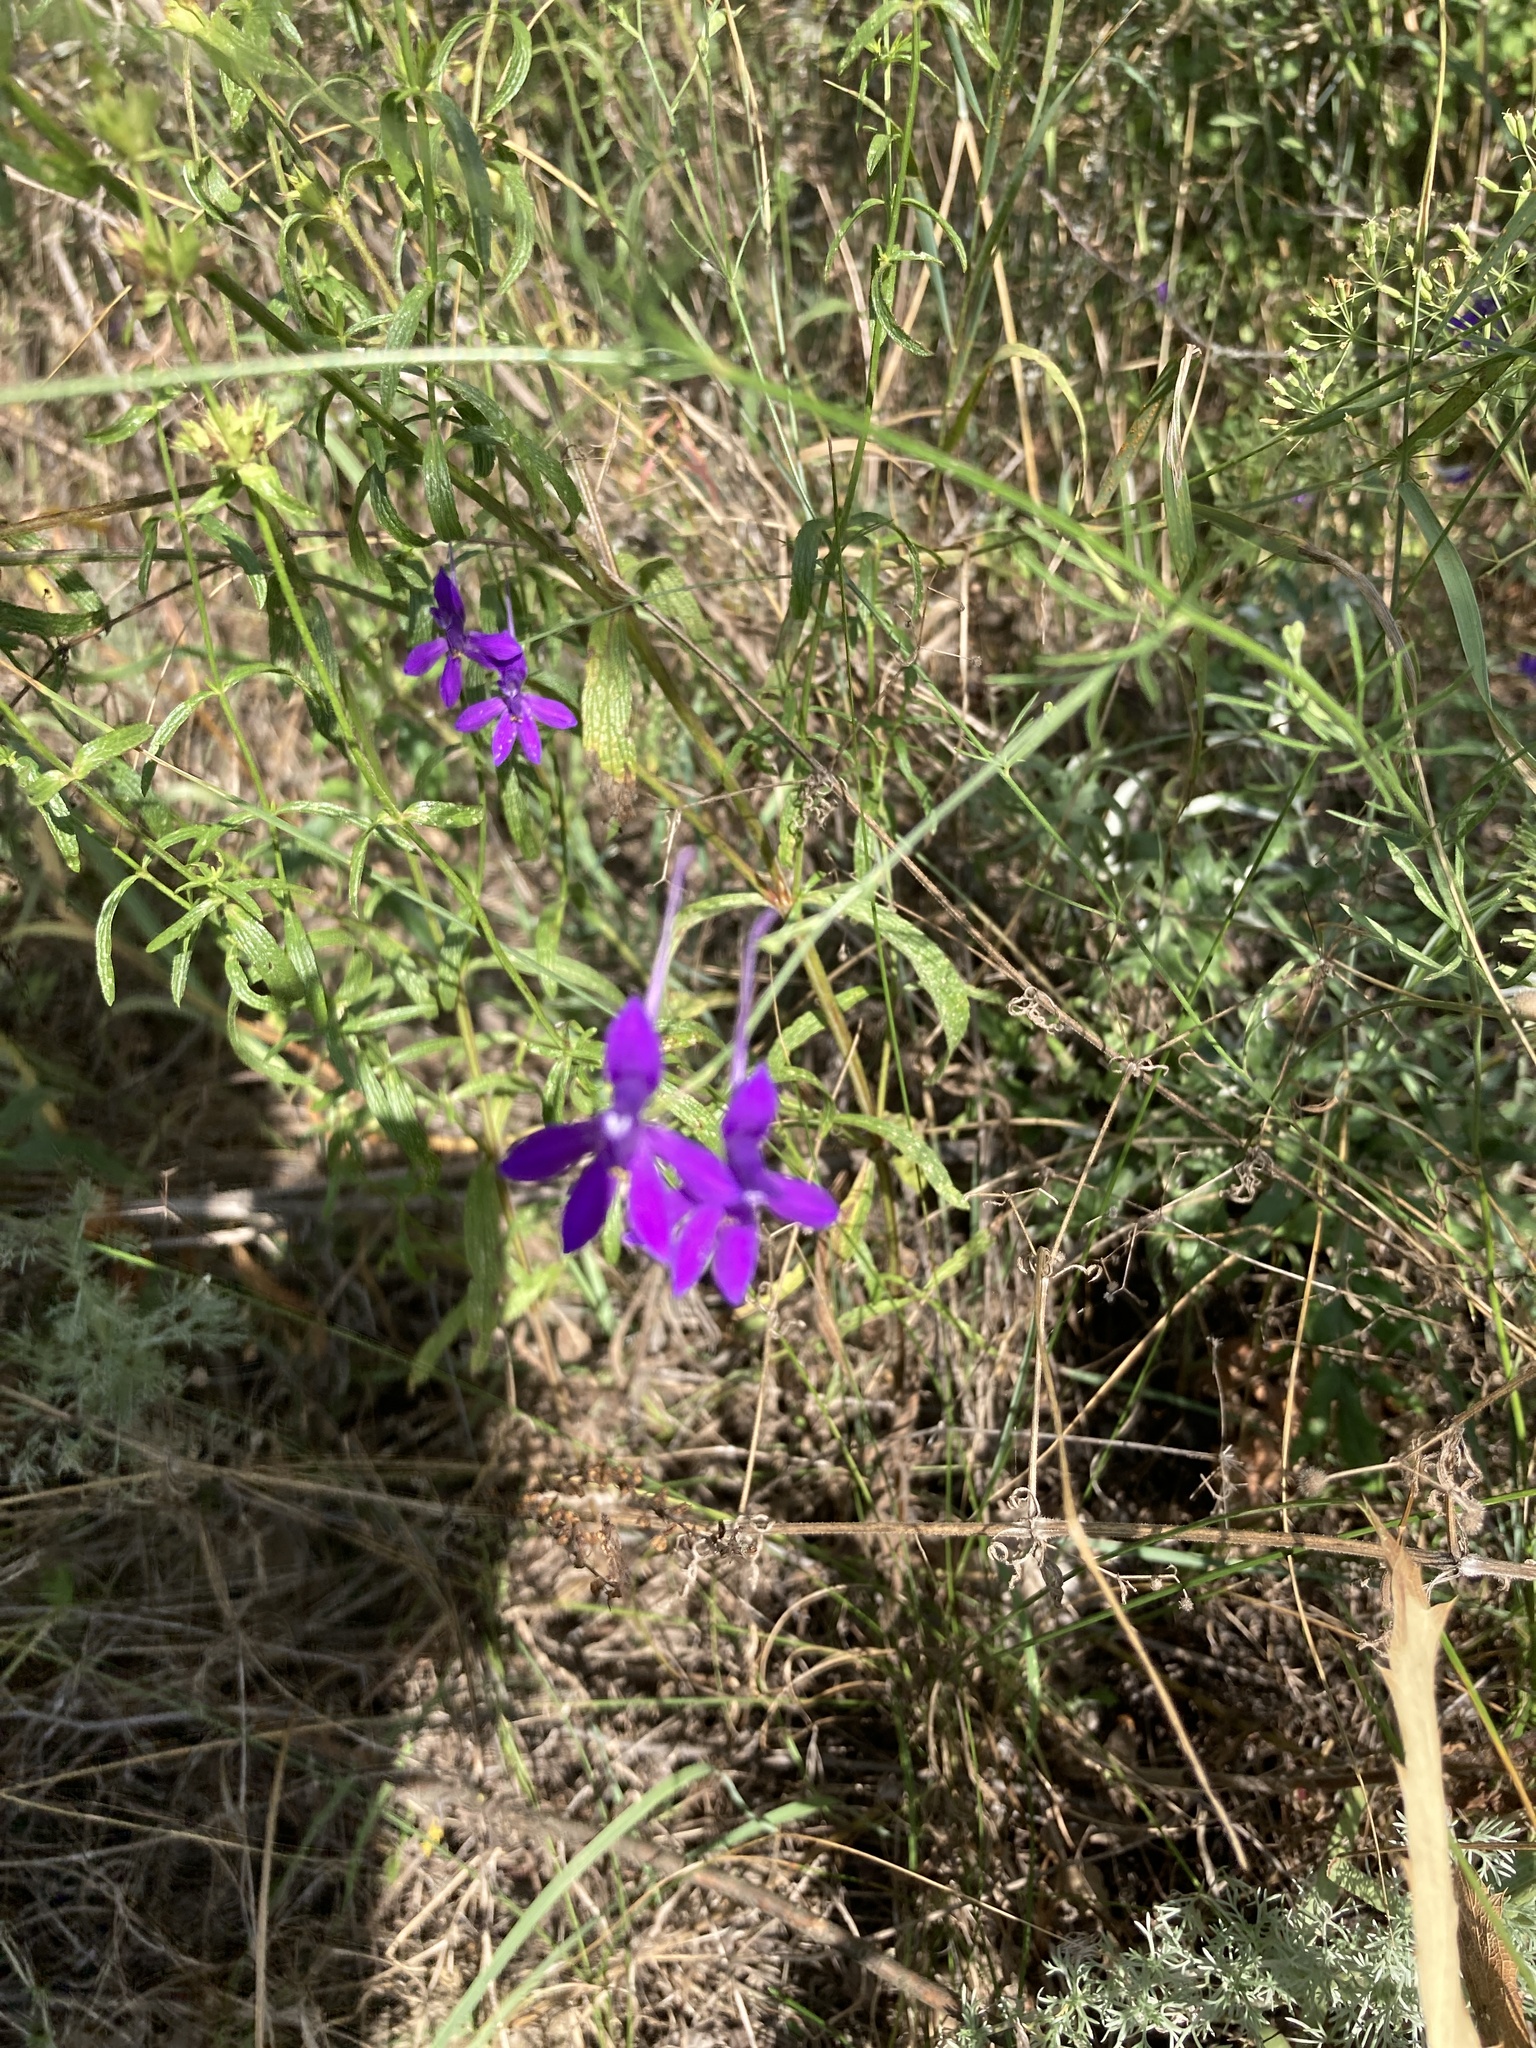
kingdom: Plantae
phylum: Tracheophyta
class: Magnoliopsida
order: Ranunculales
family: Ranunculaceae
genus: Delphinium
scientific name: Delphinium consolida
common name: Branching larkspur
